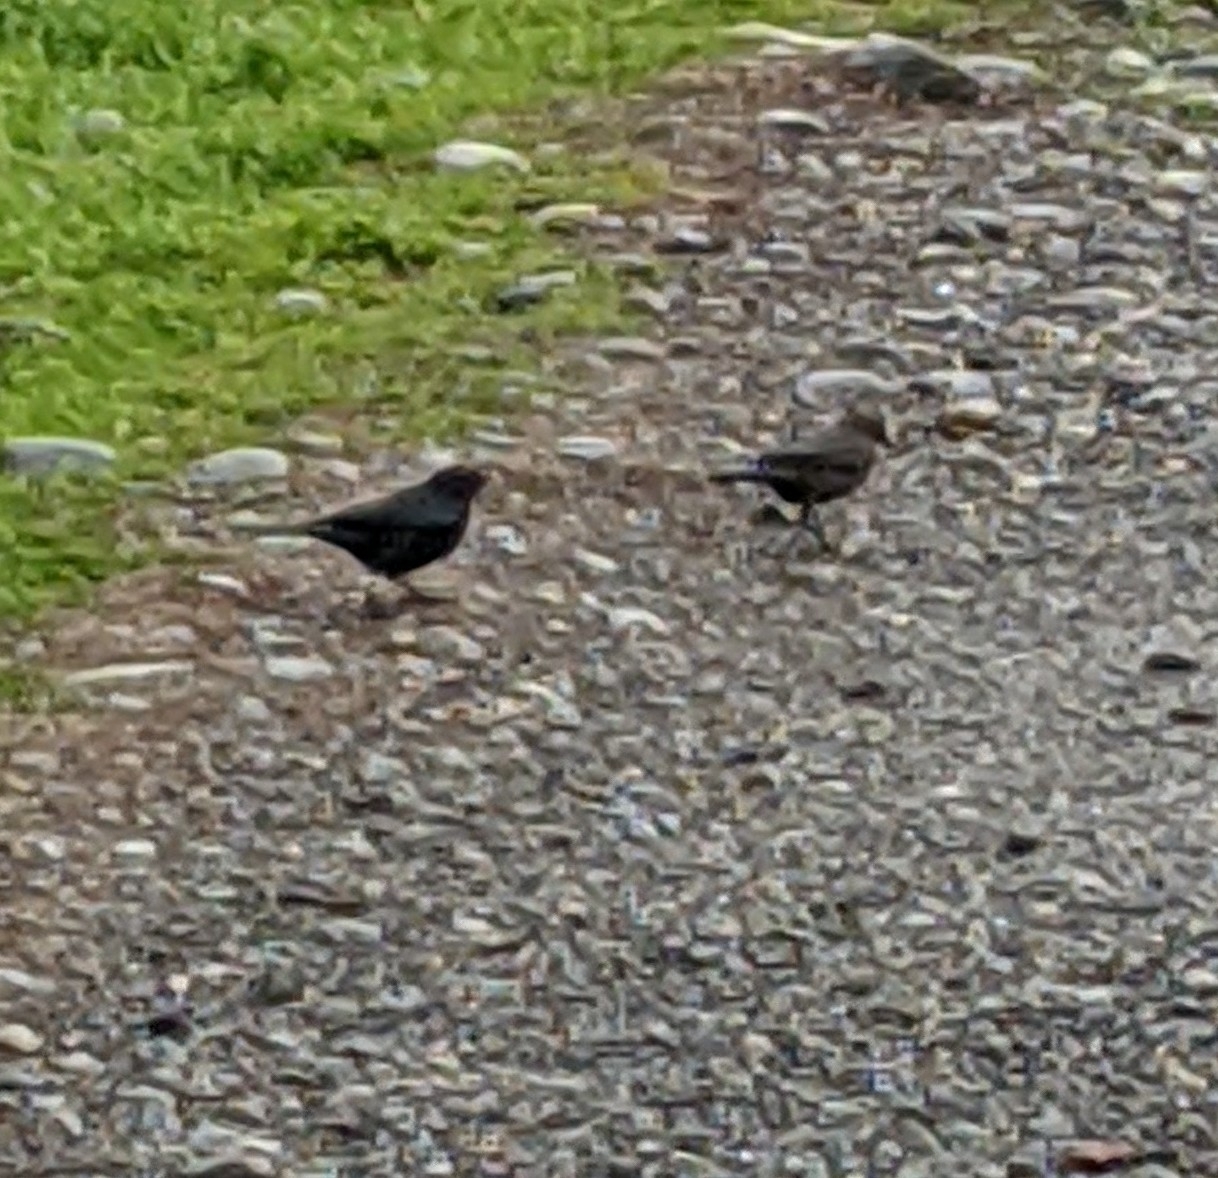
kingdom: Animalia
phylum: Chordata
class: Aves
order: Passeriformes
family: Icteridae
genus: Euphagus
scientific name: Euphagus cyanocephalus
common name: Brewer's blackbird
